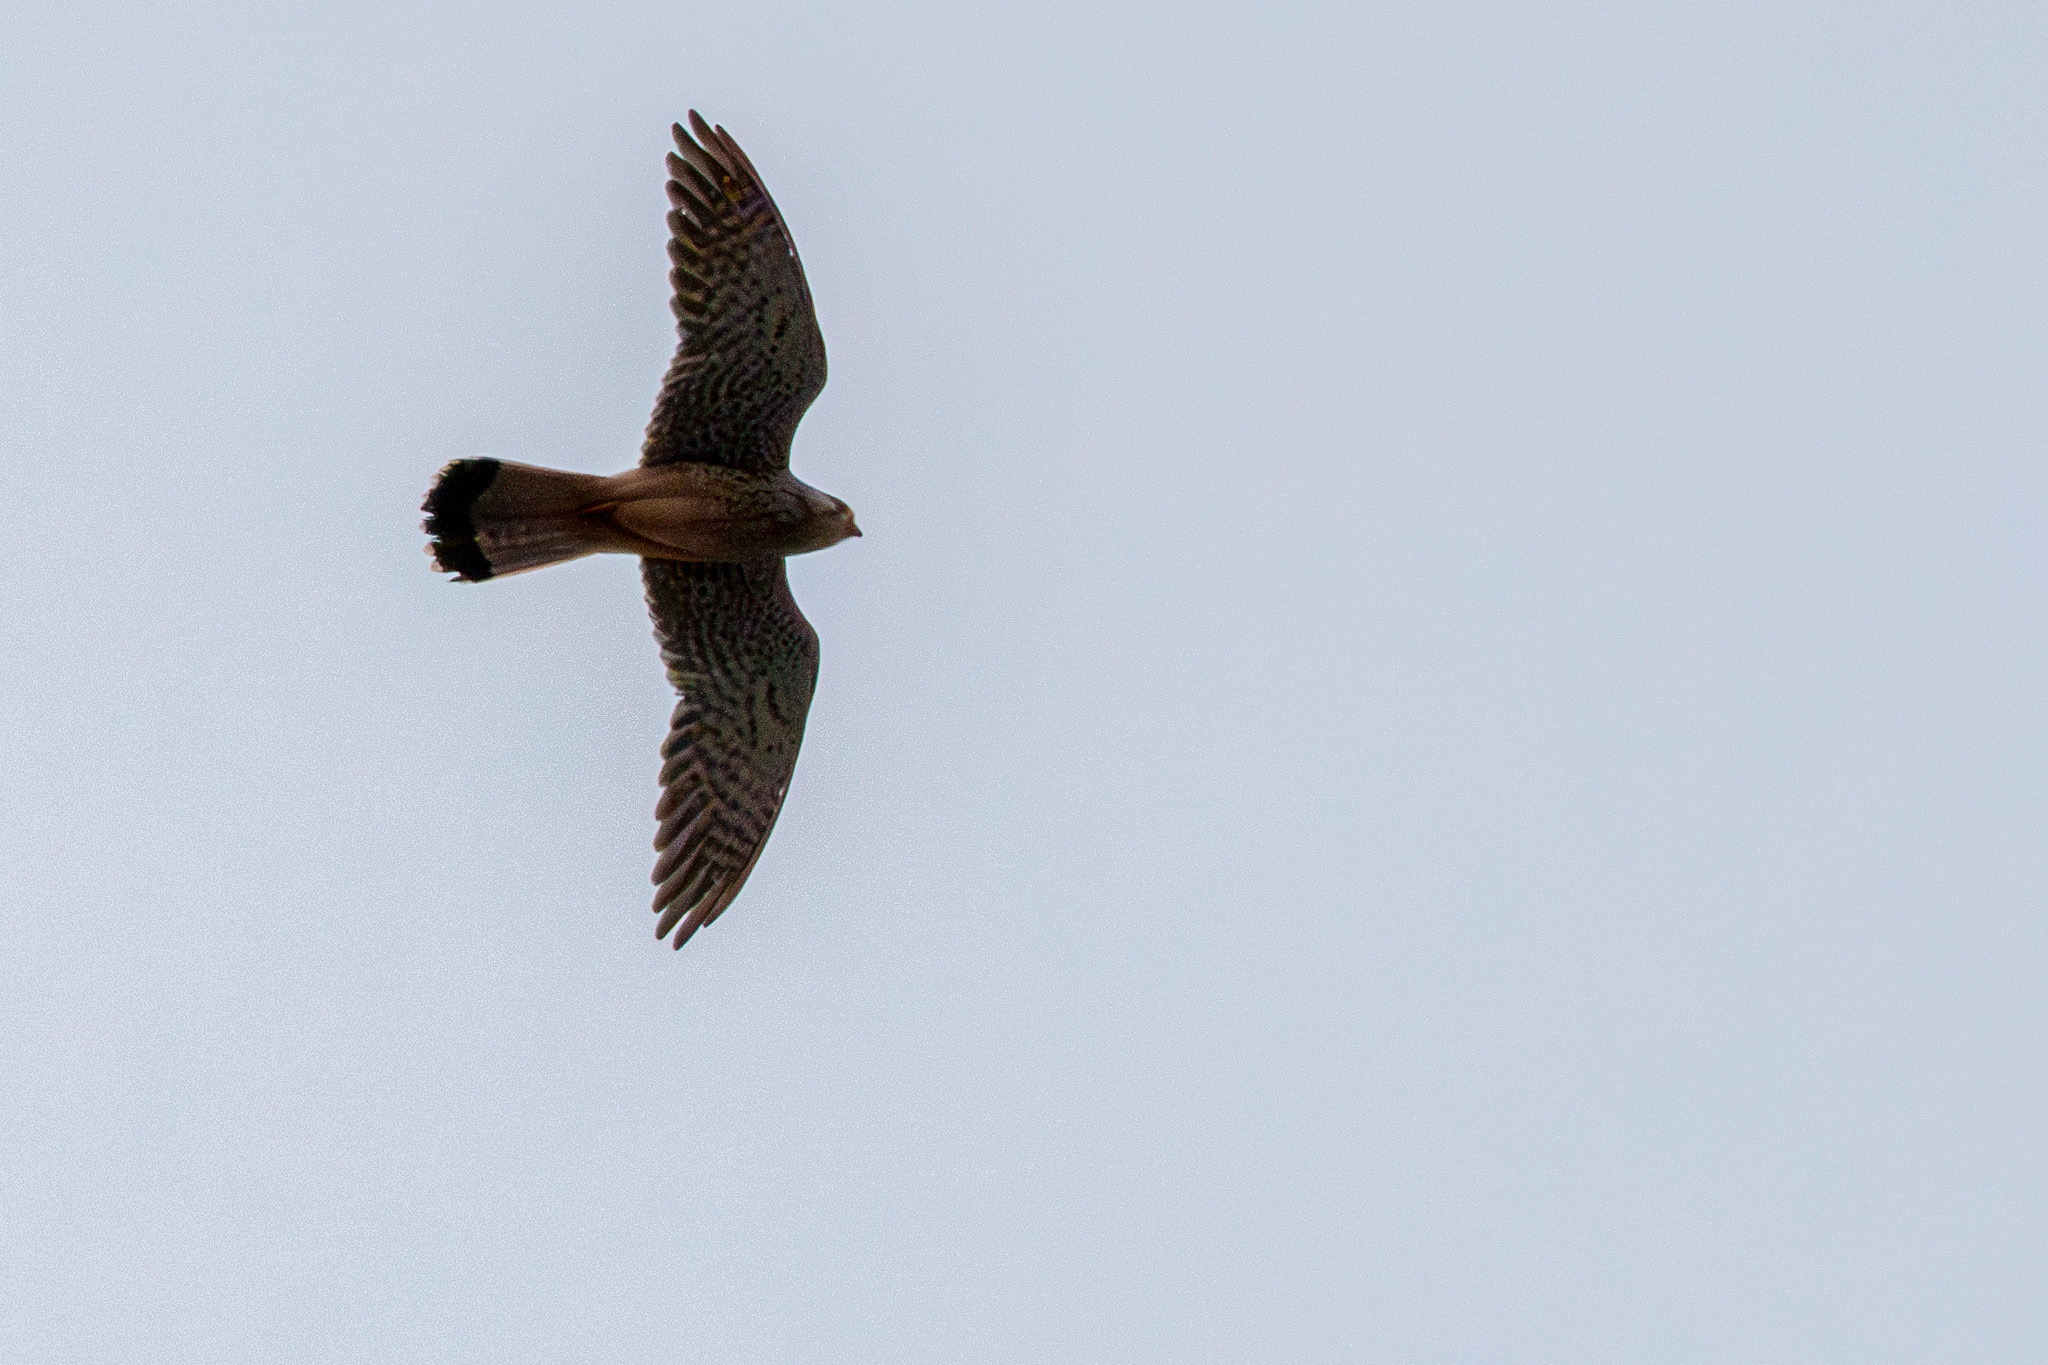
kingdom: Animalia
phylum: Chordata
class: Aves
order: Falconiformes
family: Falconidae
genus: Falco
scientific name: Falco tinnunculus
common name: Common kestrel
